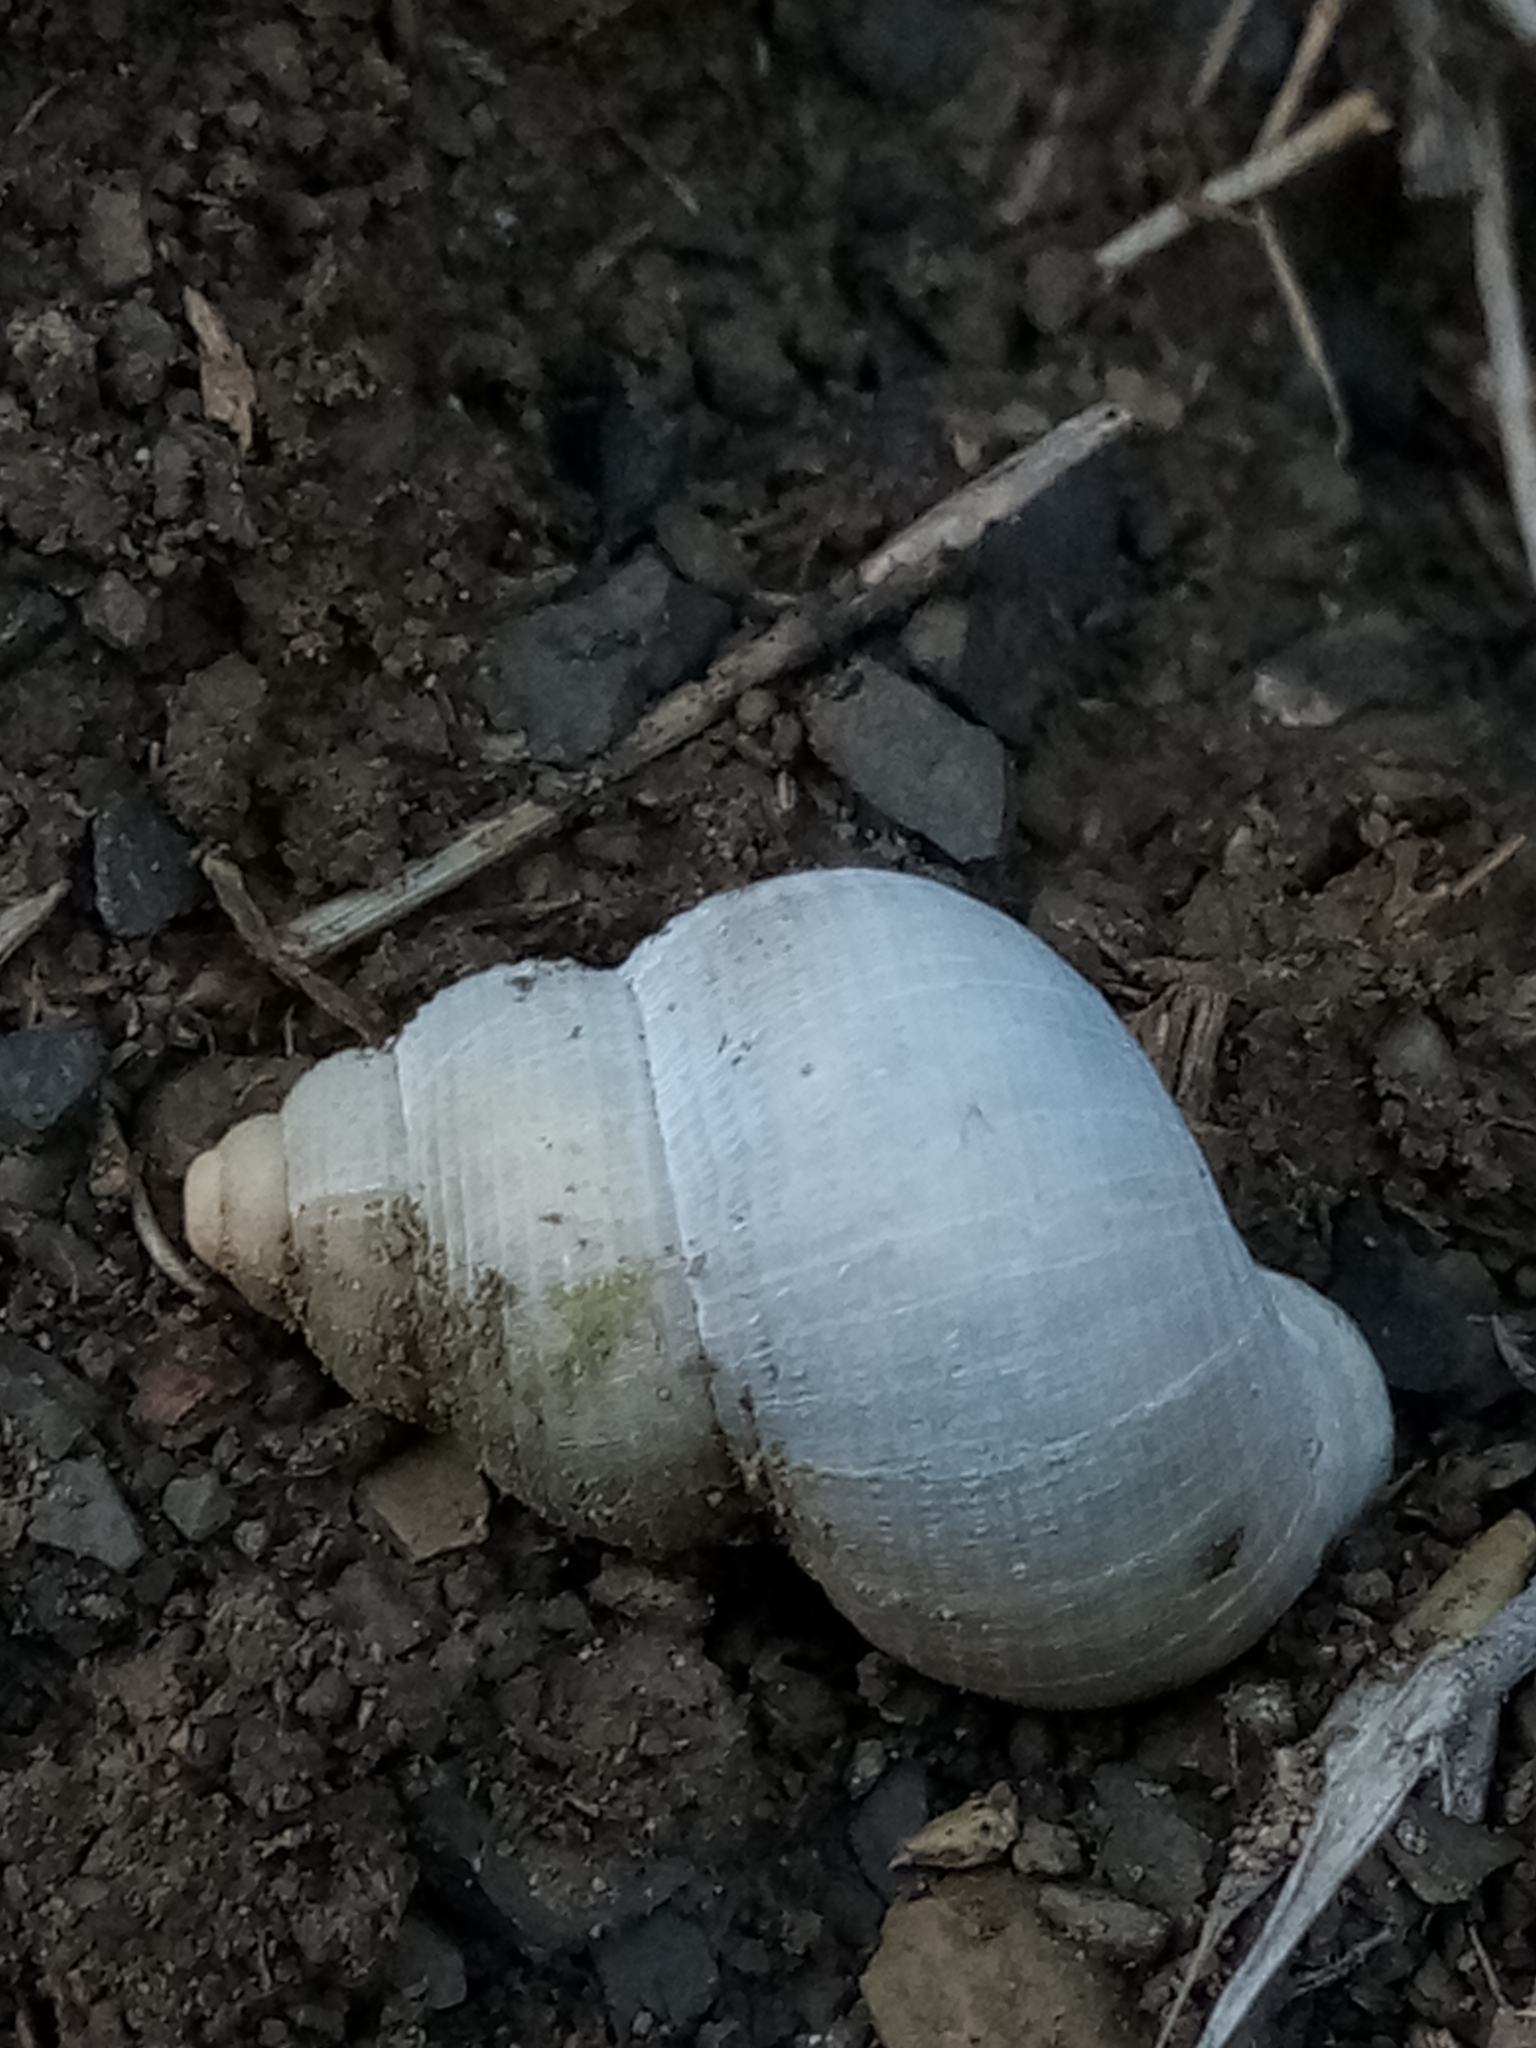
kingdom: Animalia
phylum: Mollusca
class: Gastropoda
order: Littorinimorpha
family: Pomatiidae
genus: Tudorella
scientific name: Tudorella sulcata
